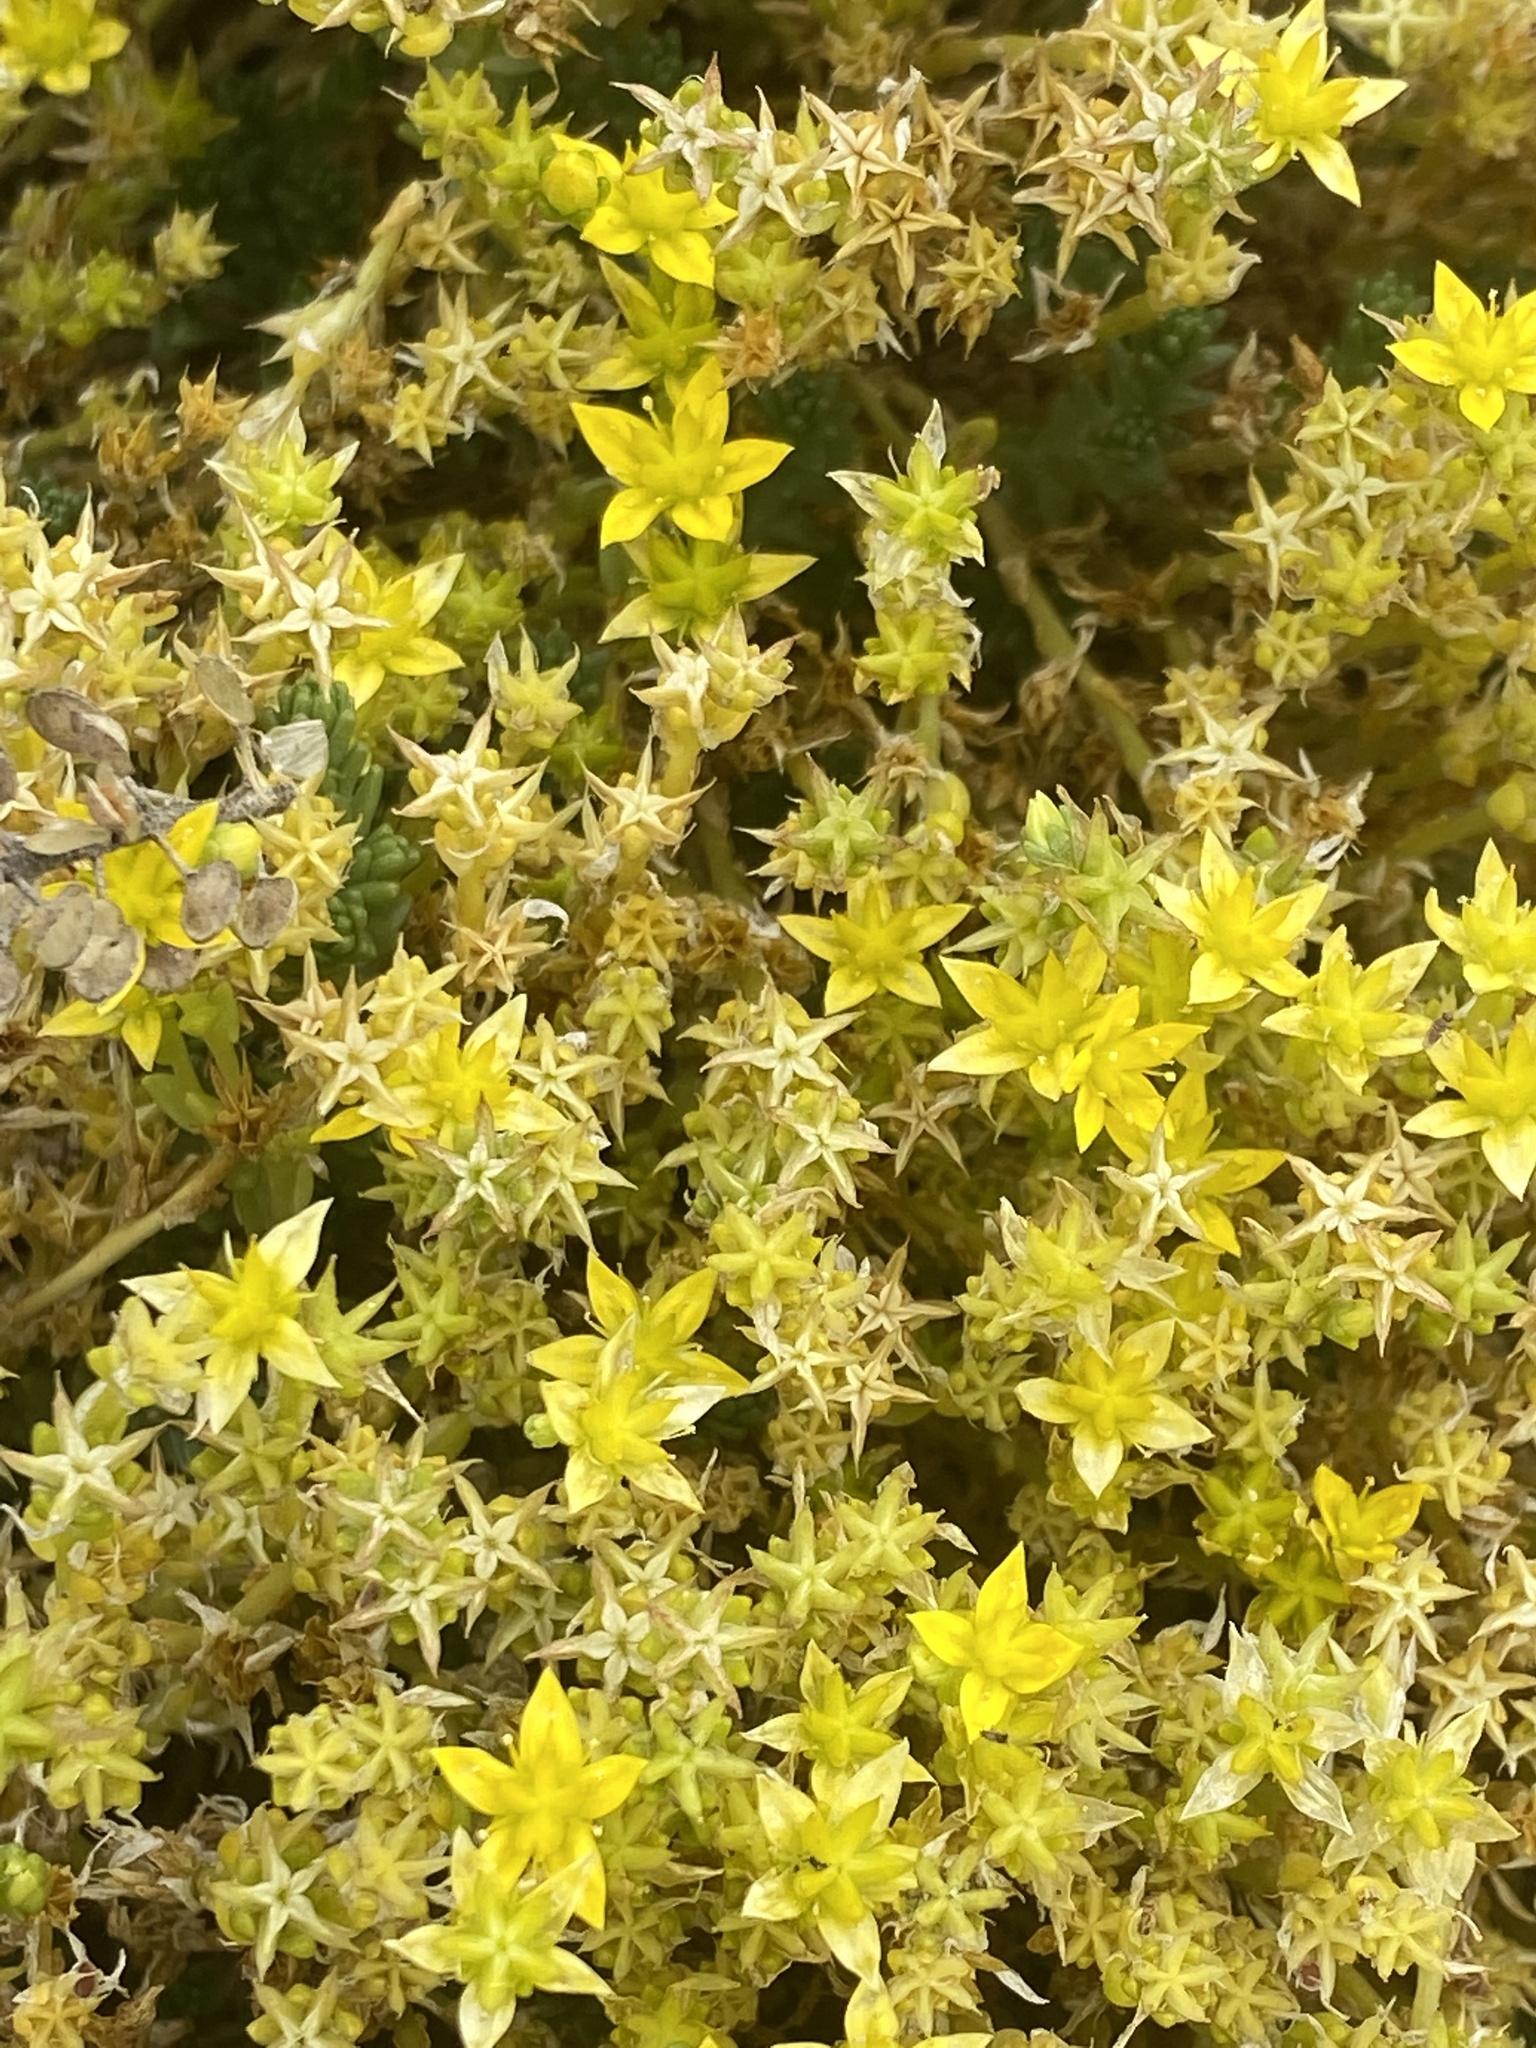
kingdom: Plantae
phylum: Tracheophyta
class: Magnoliopsida
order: Saxifragales
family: Crassulaceae
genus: Sedum
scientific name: Sedum acre
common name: Biting stonecrop
